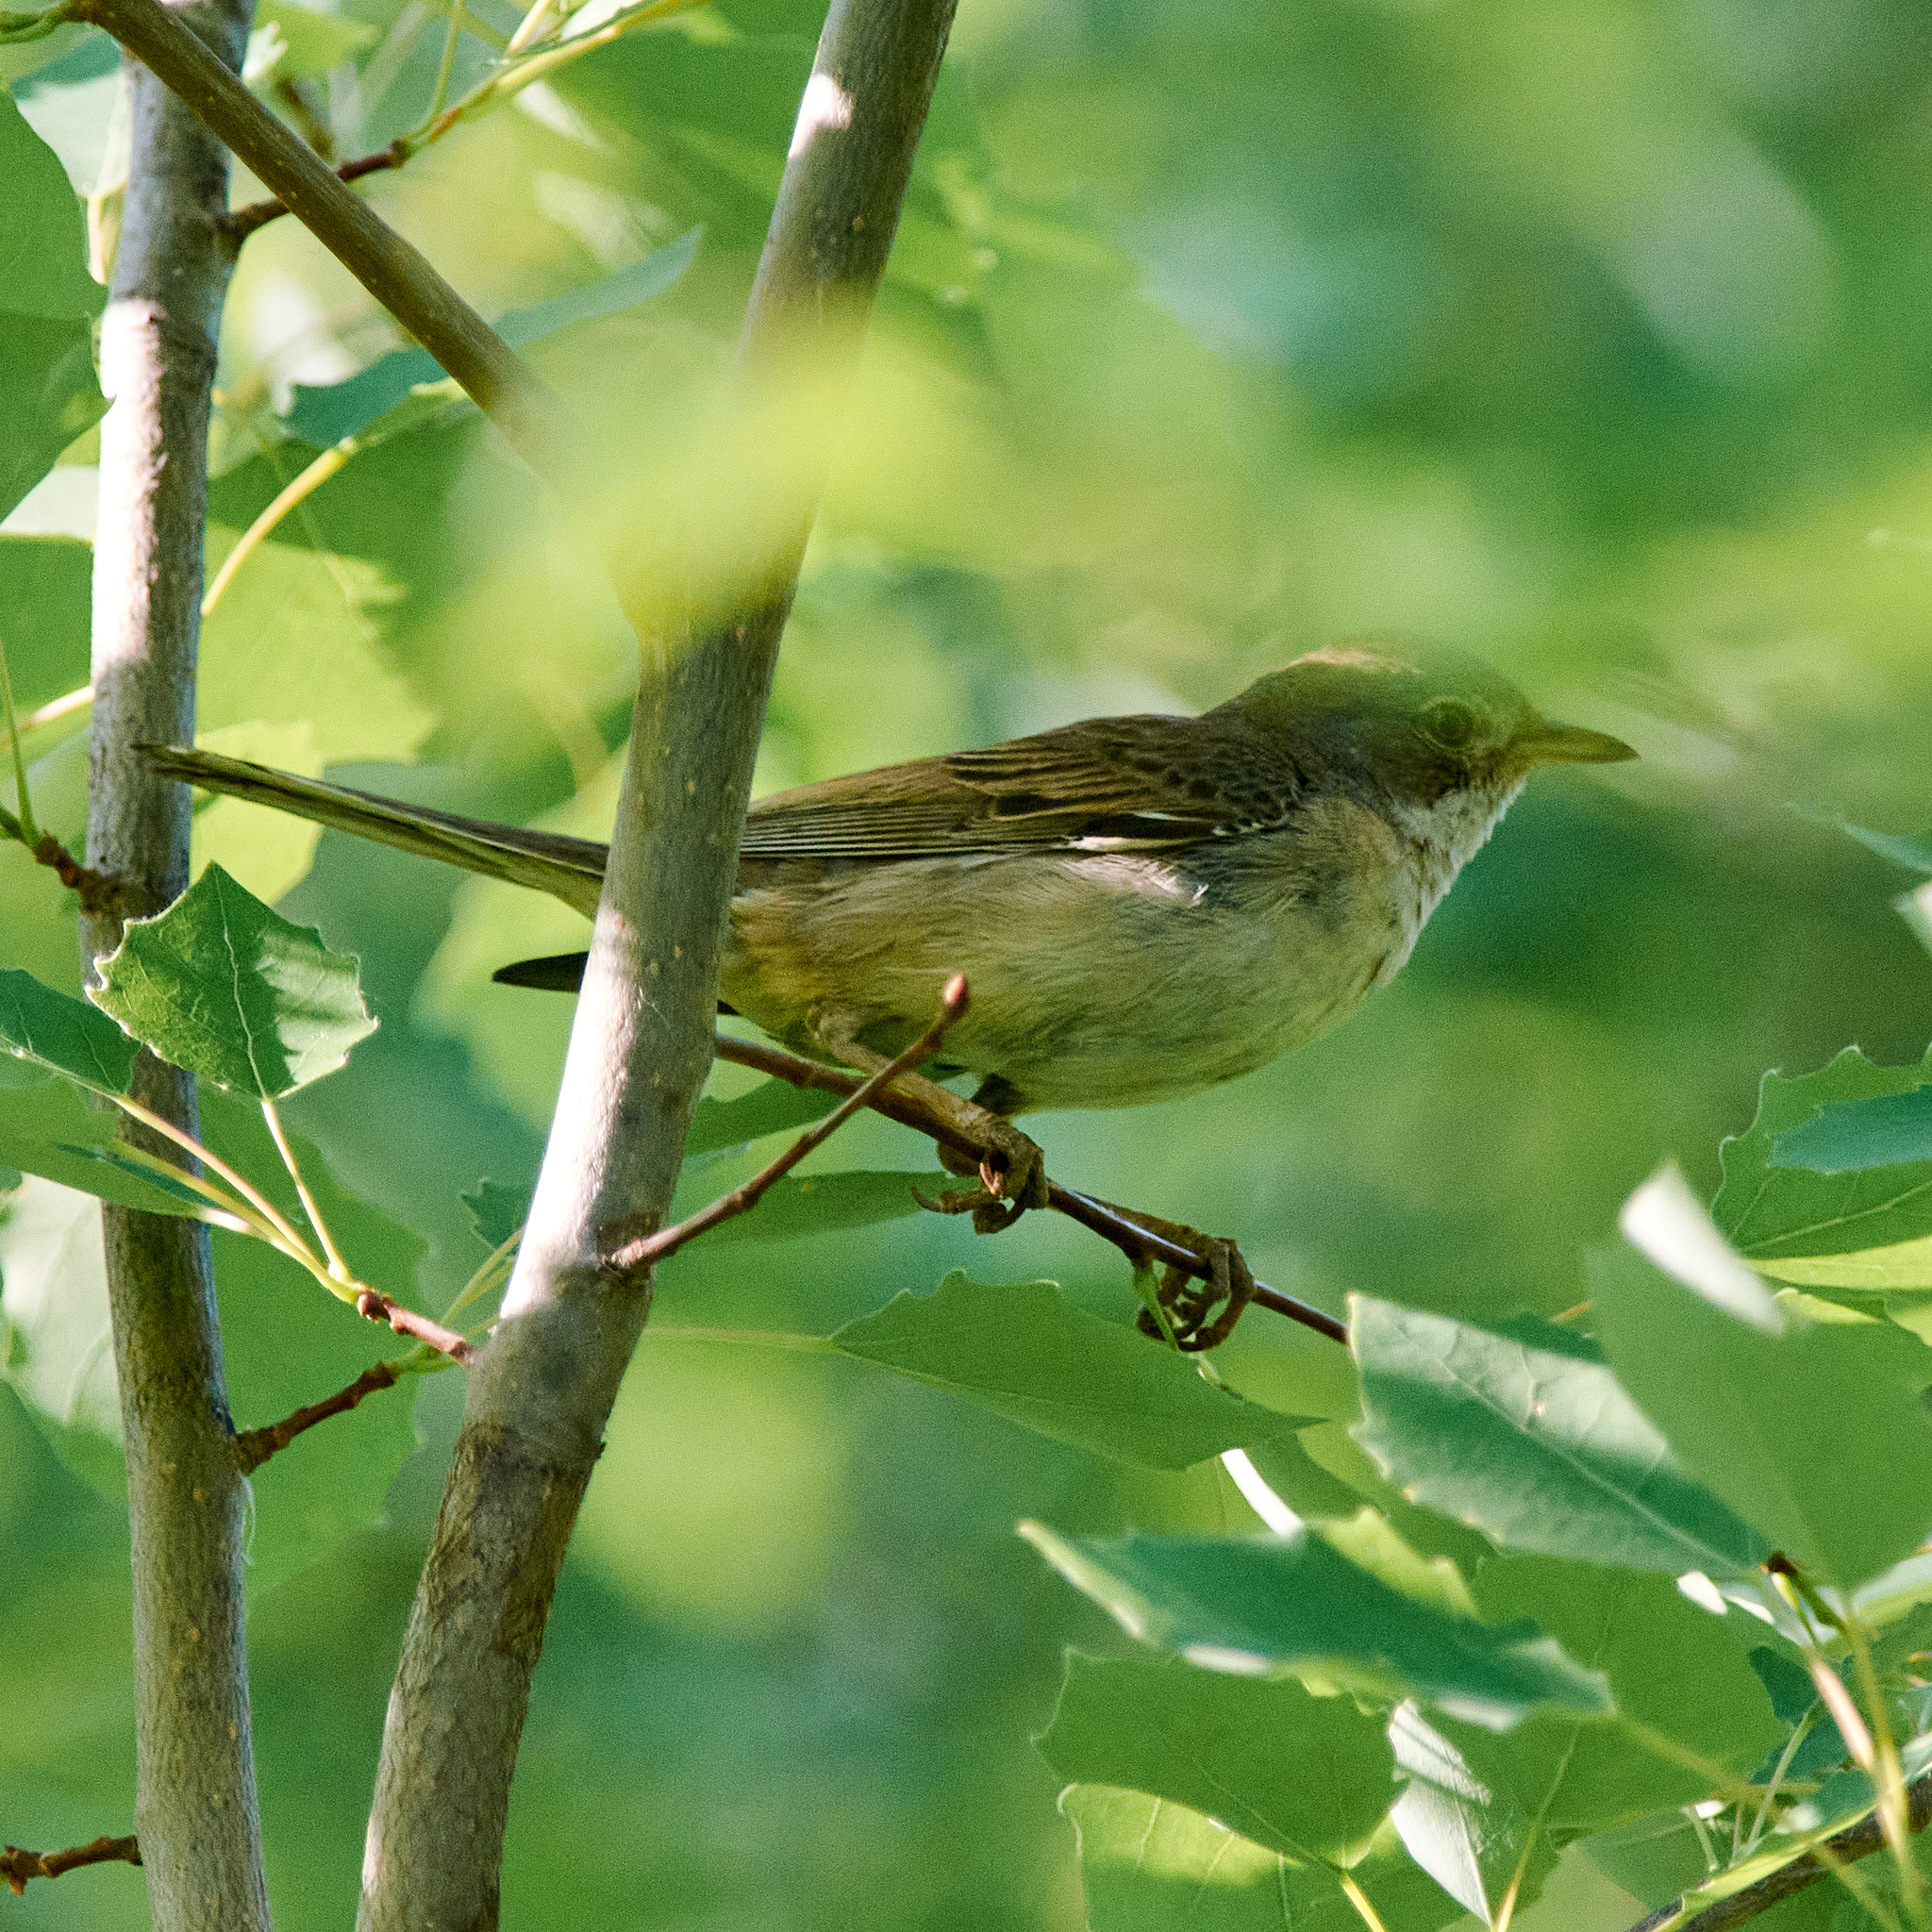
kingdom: Animalia
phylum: Chordata
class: Aves
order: Passeriformes
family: Sylviidae
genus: Sylvia
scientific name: Sylvia communis
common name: Common whitethroat
